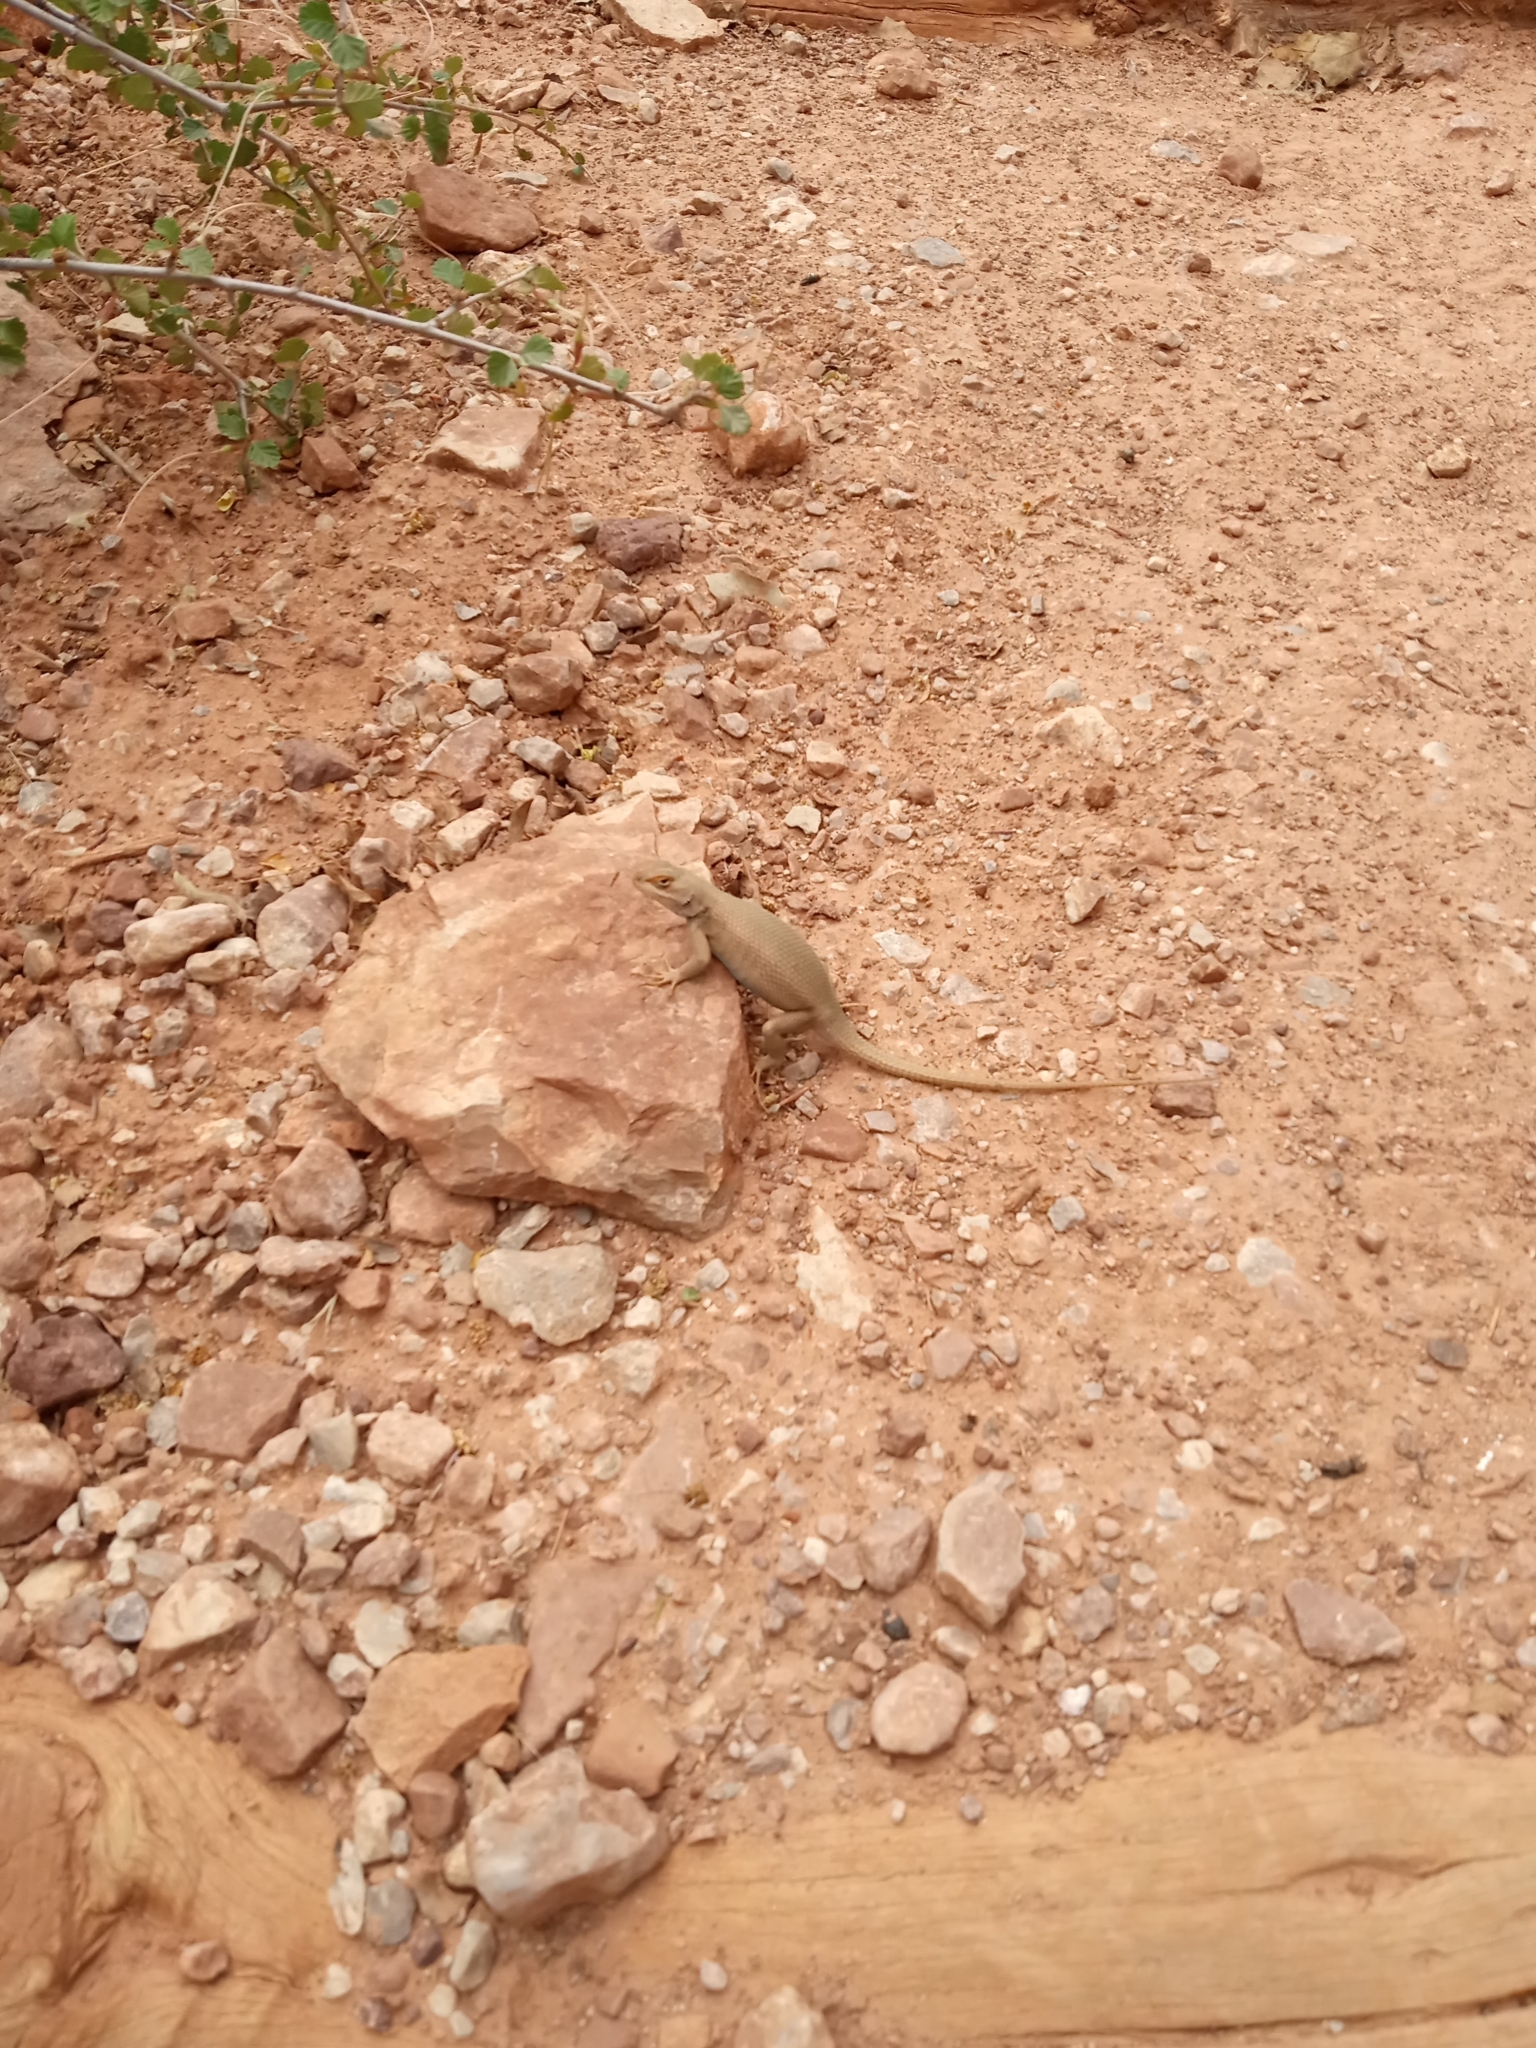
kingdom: Animalia
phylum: Chordata
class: Squamata
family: Phrynosomatidae
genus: Sceloporus
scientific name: Sceloporus tristichus
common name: Plateau fence lizard
